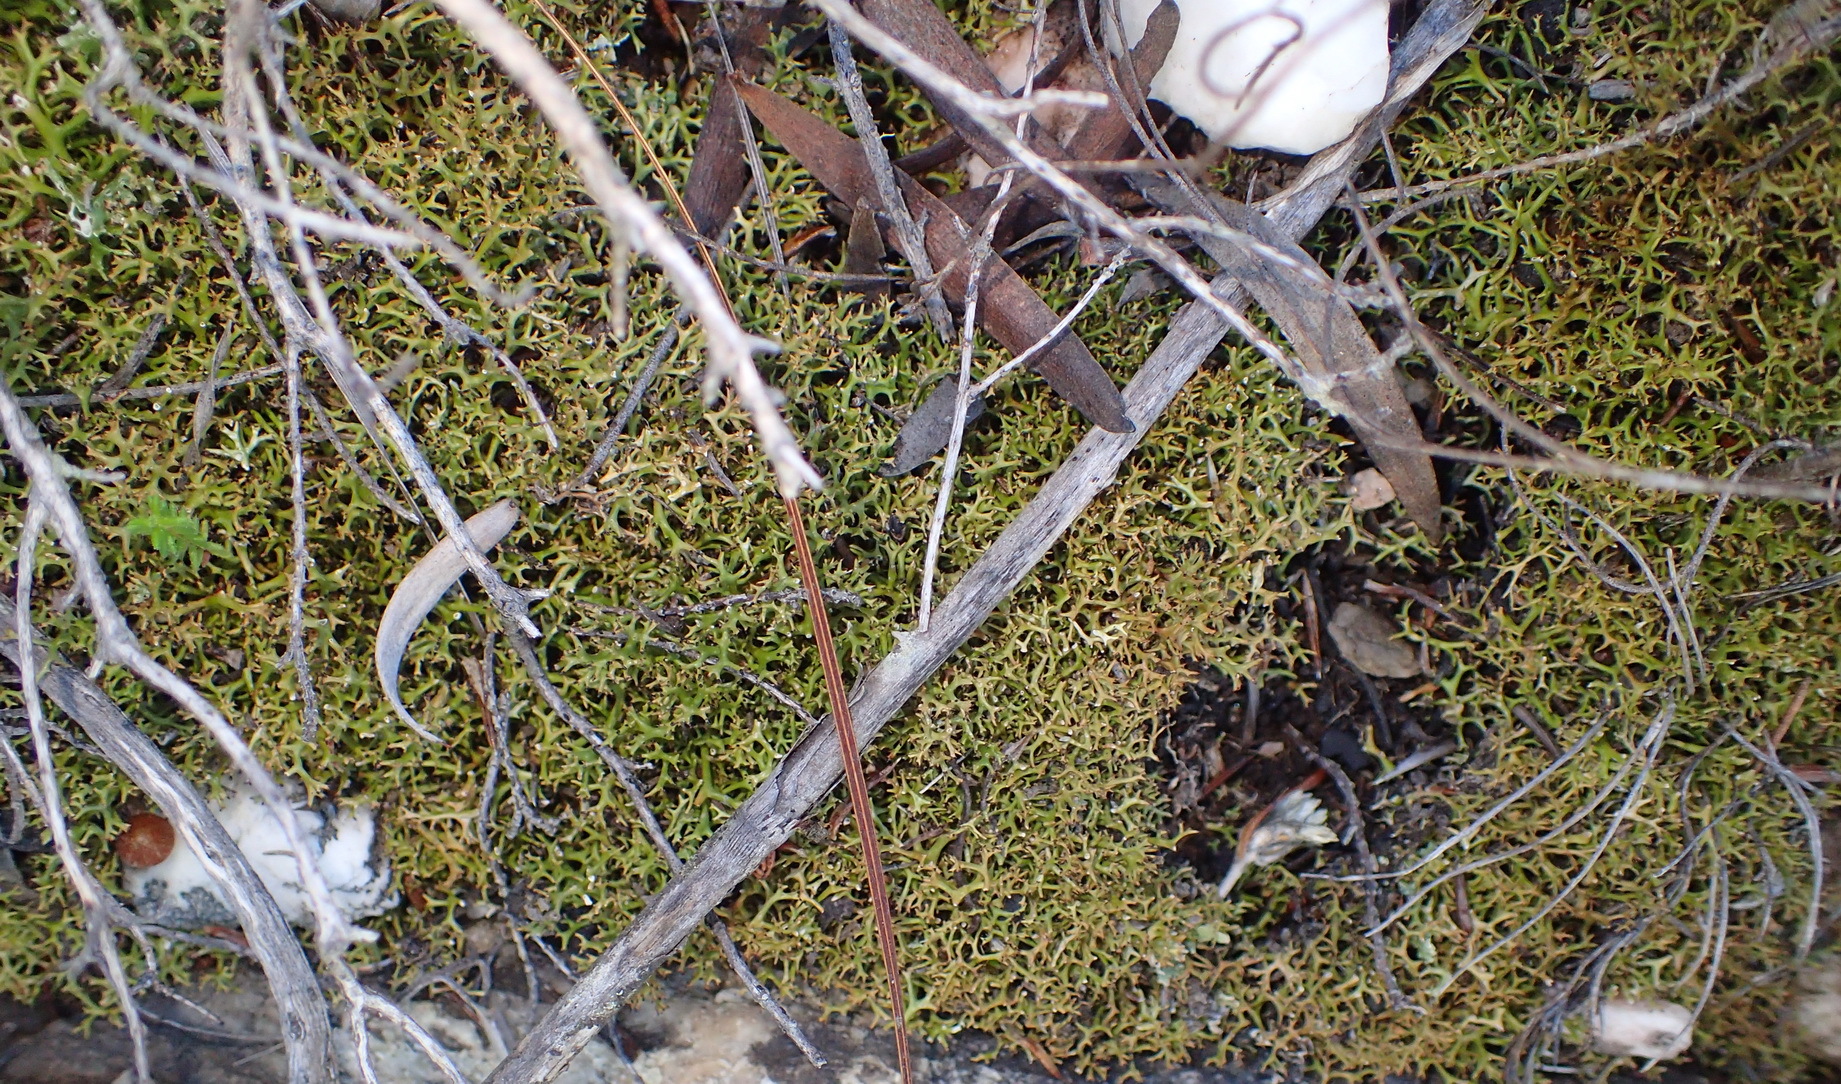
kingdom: Fungi
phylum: Ascomycota
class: Lecanoromycetes
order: Lecanorales
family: Cladoniaceae
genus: Cladia
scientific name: Cladia aggregata
